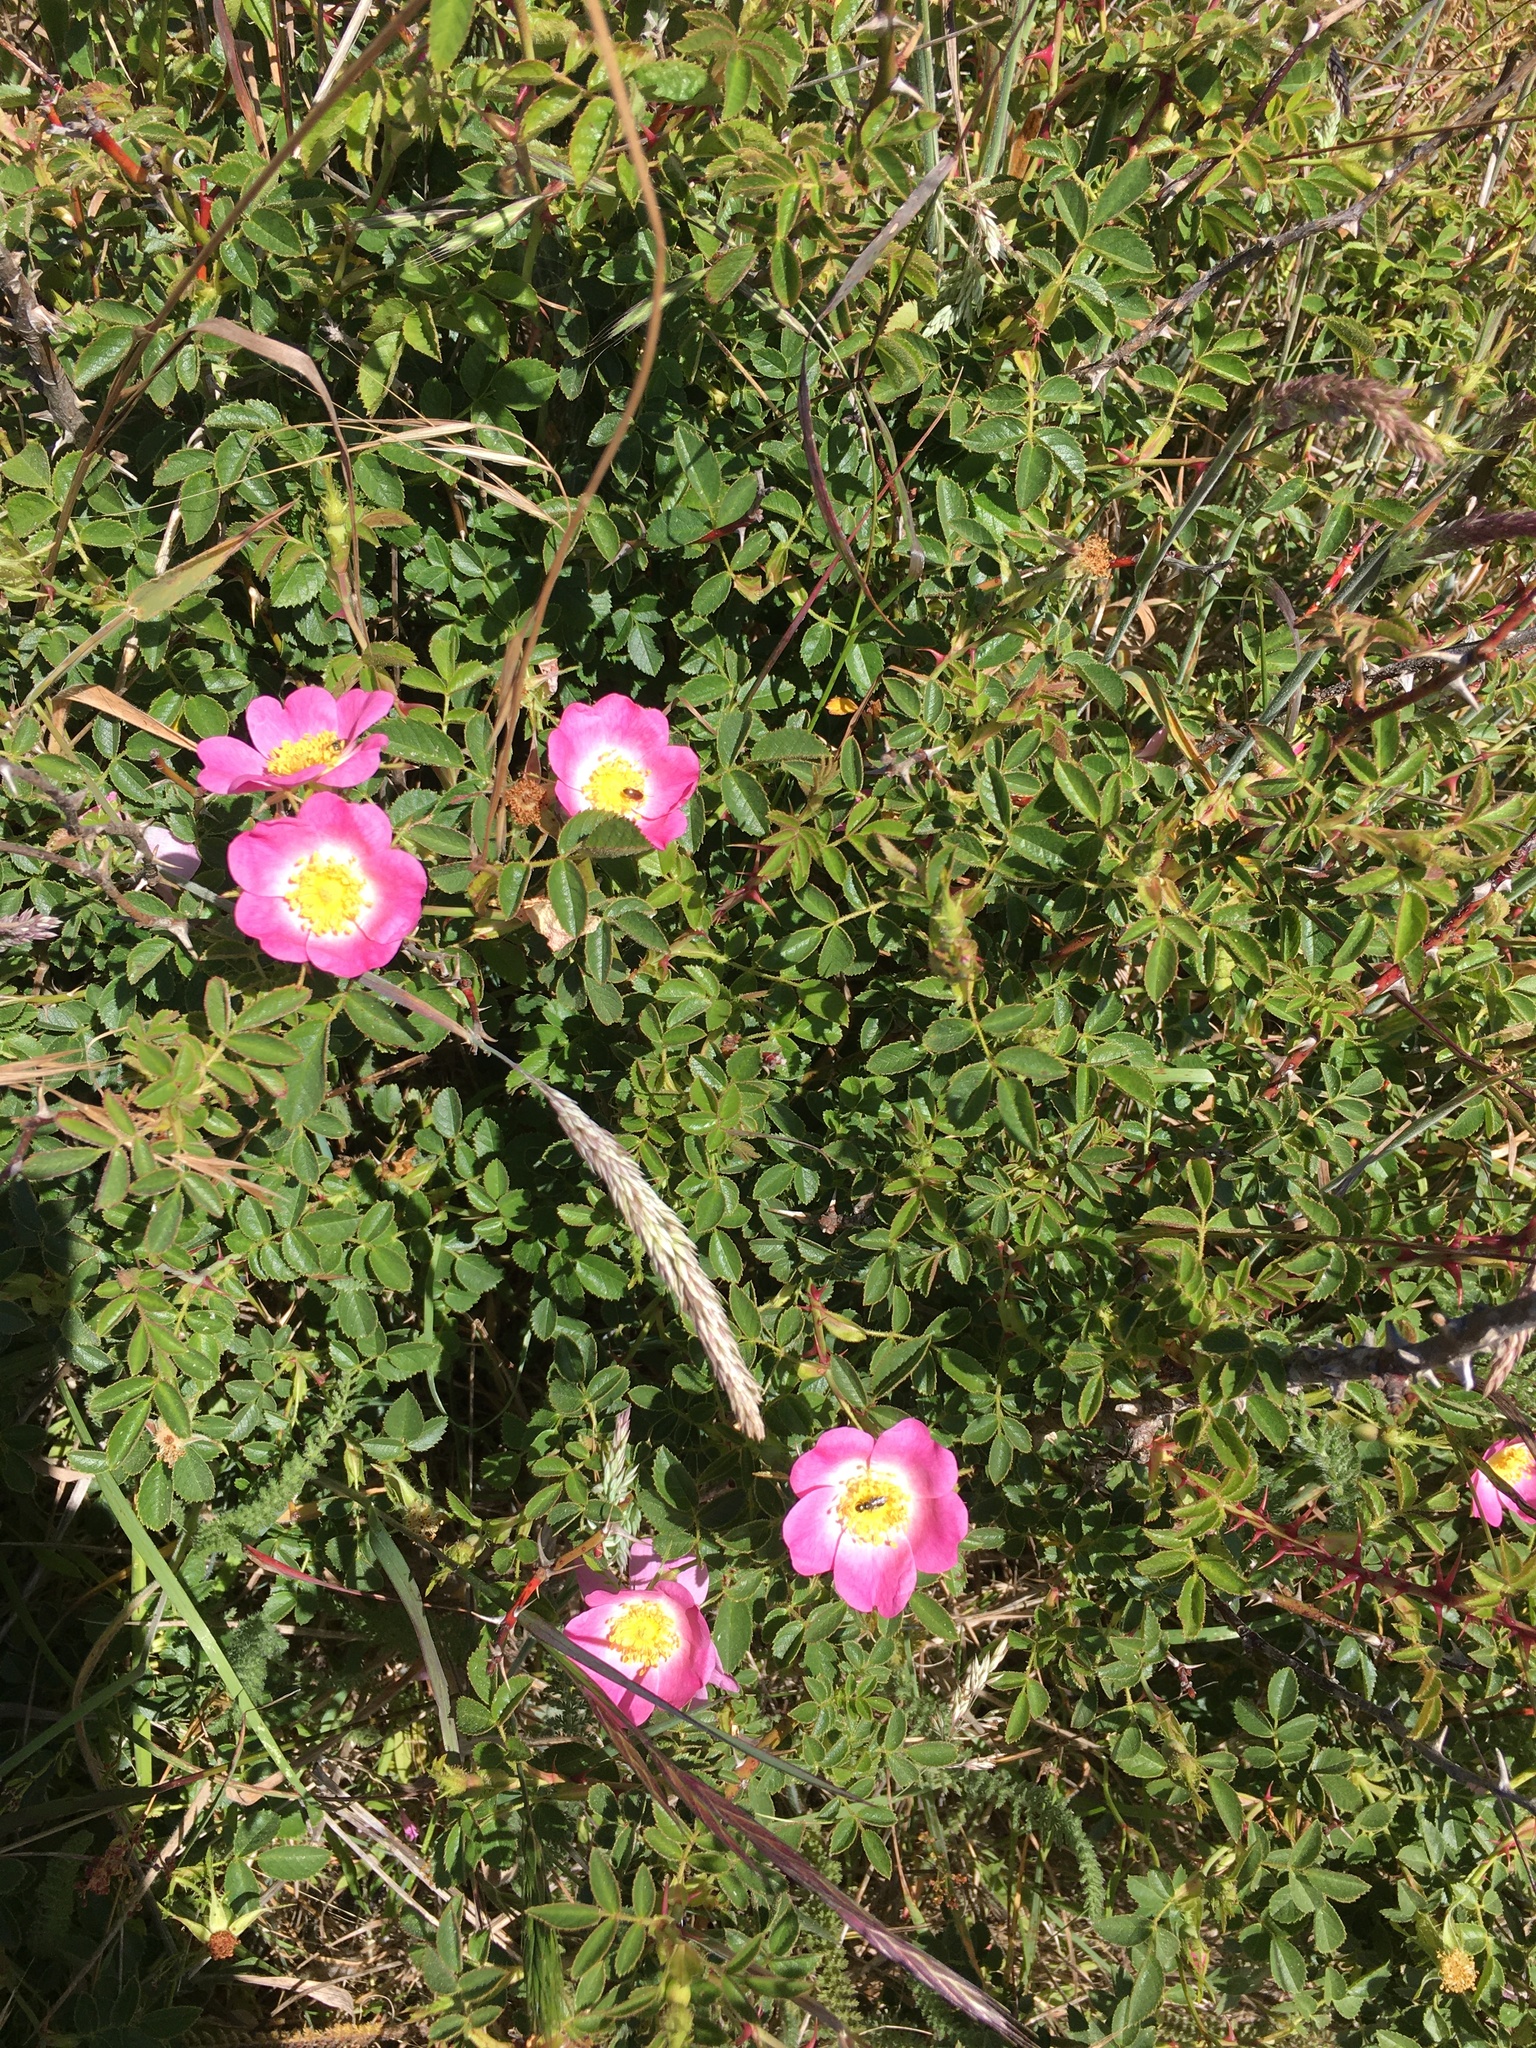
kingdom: Plantae
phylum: Tracheophyta
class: Magnoliopsida
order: Rosales
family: Rosaceae
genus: Rosa
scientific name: Rosa rubiginosa
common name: Sweet-briar
